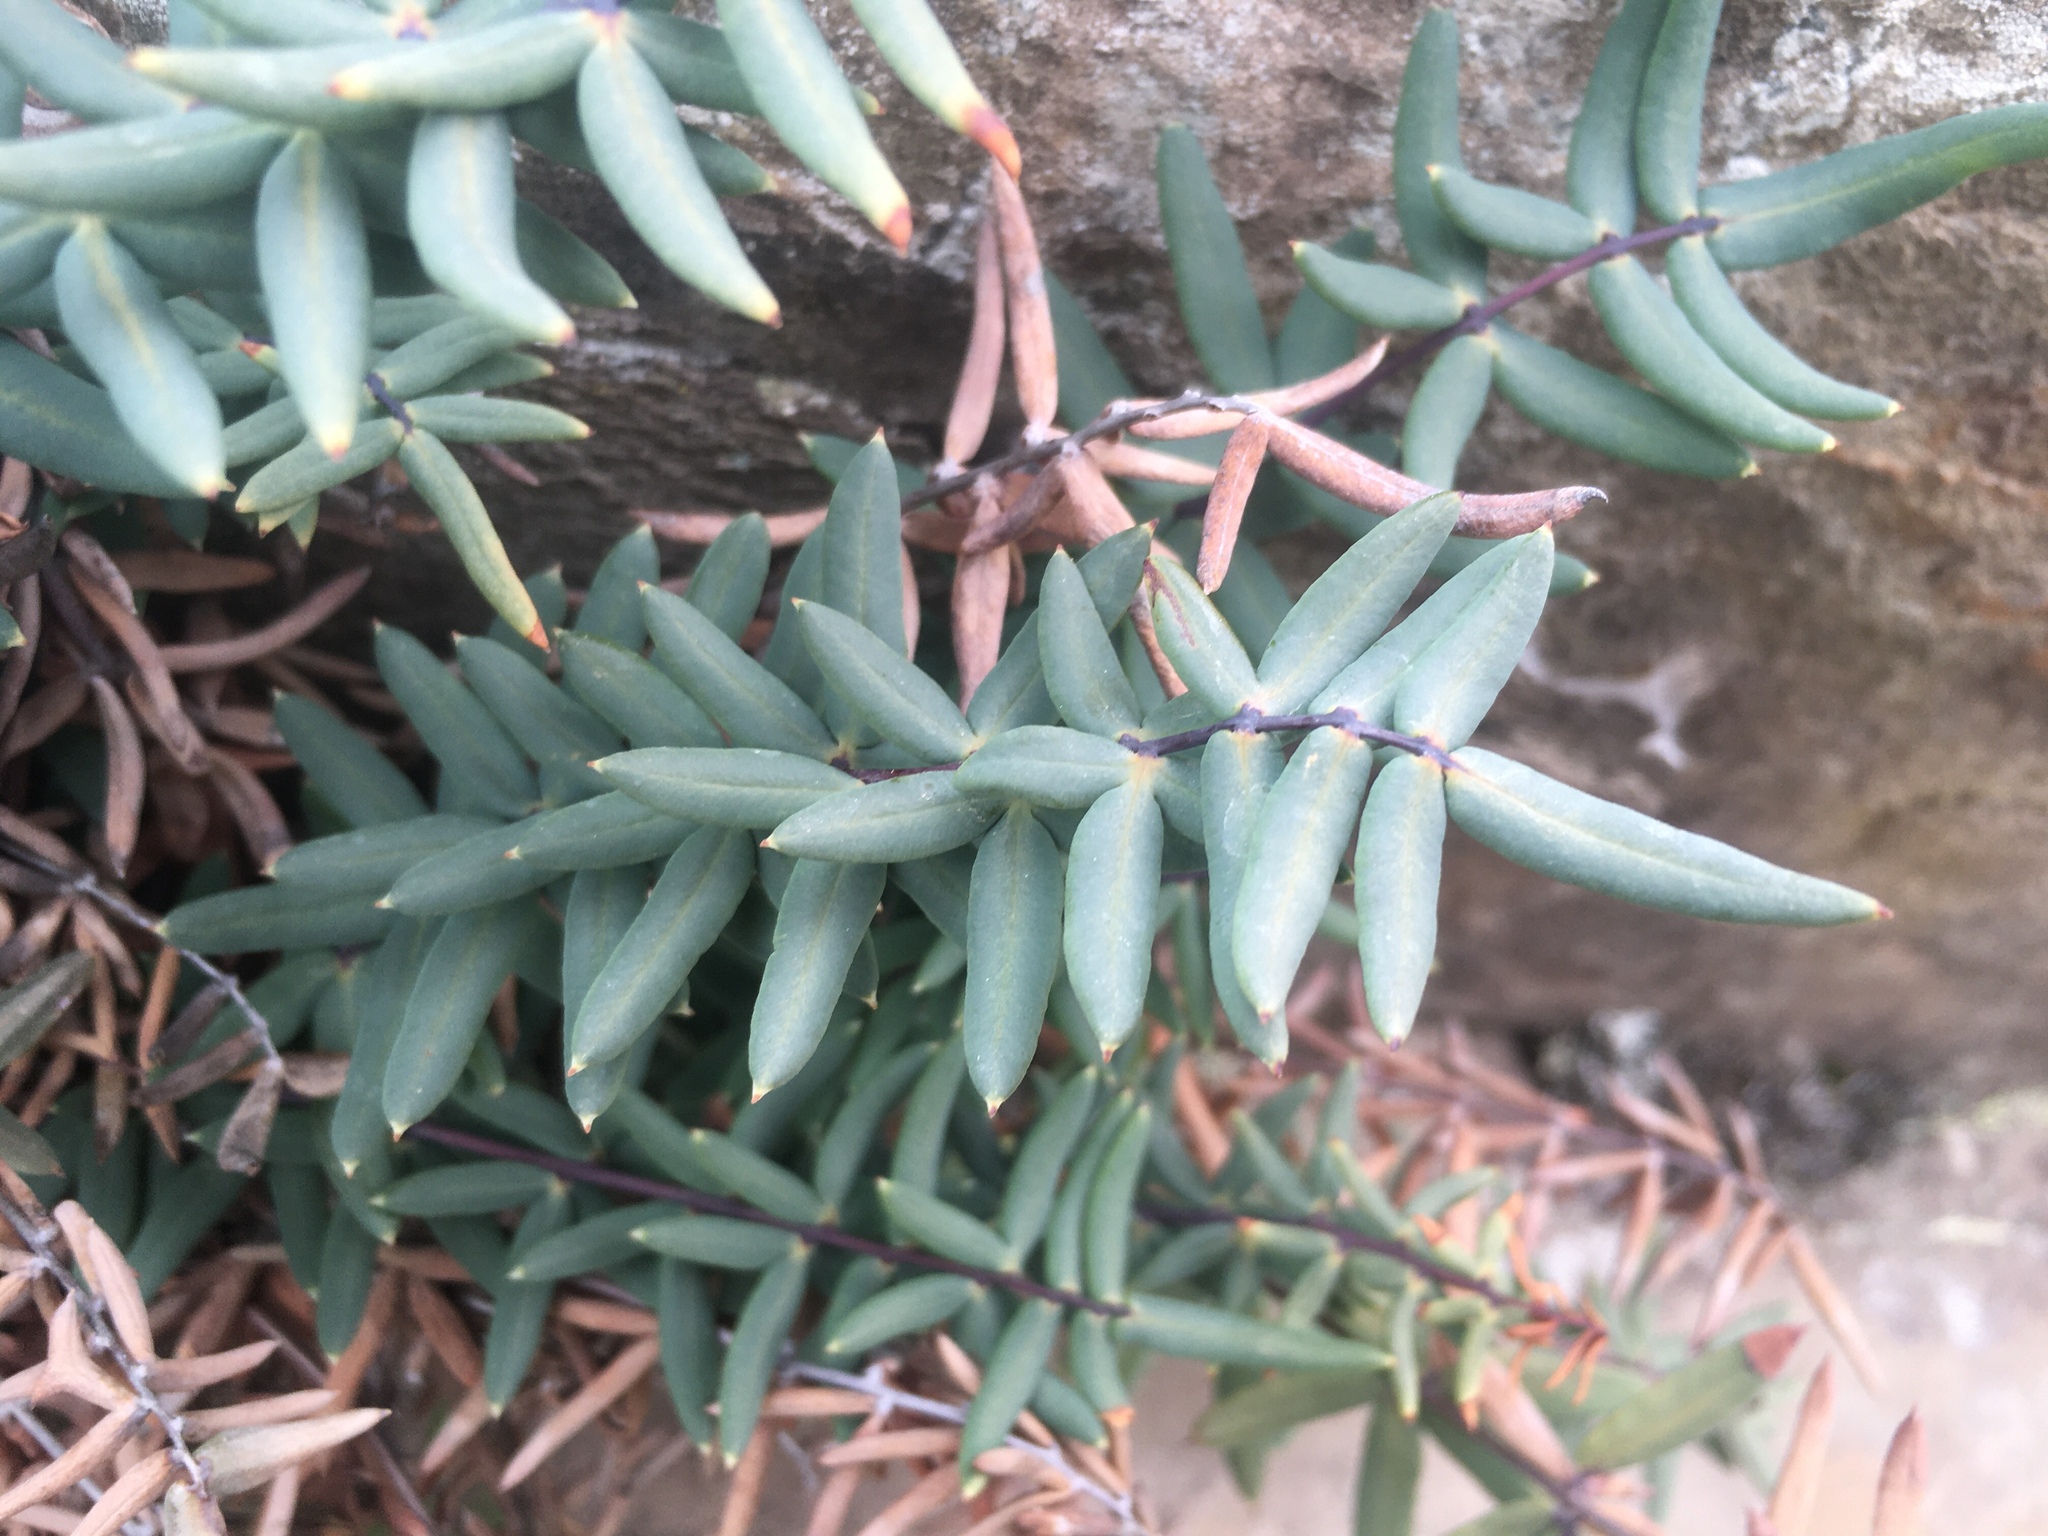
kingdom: Plantae
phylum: Tracheophyta
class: Polypodiopsida
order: Polypodiales
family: Pteridaceae
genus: Pellaea
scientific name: Pellaea ternifolia
